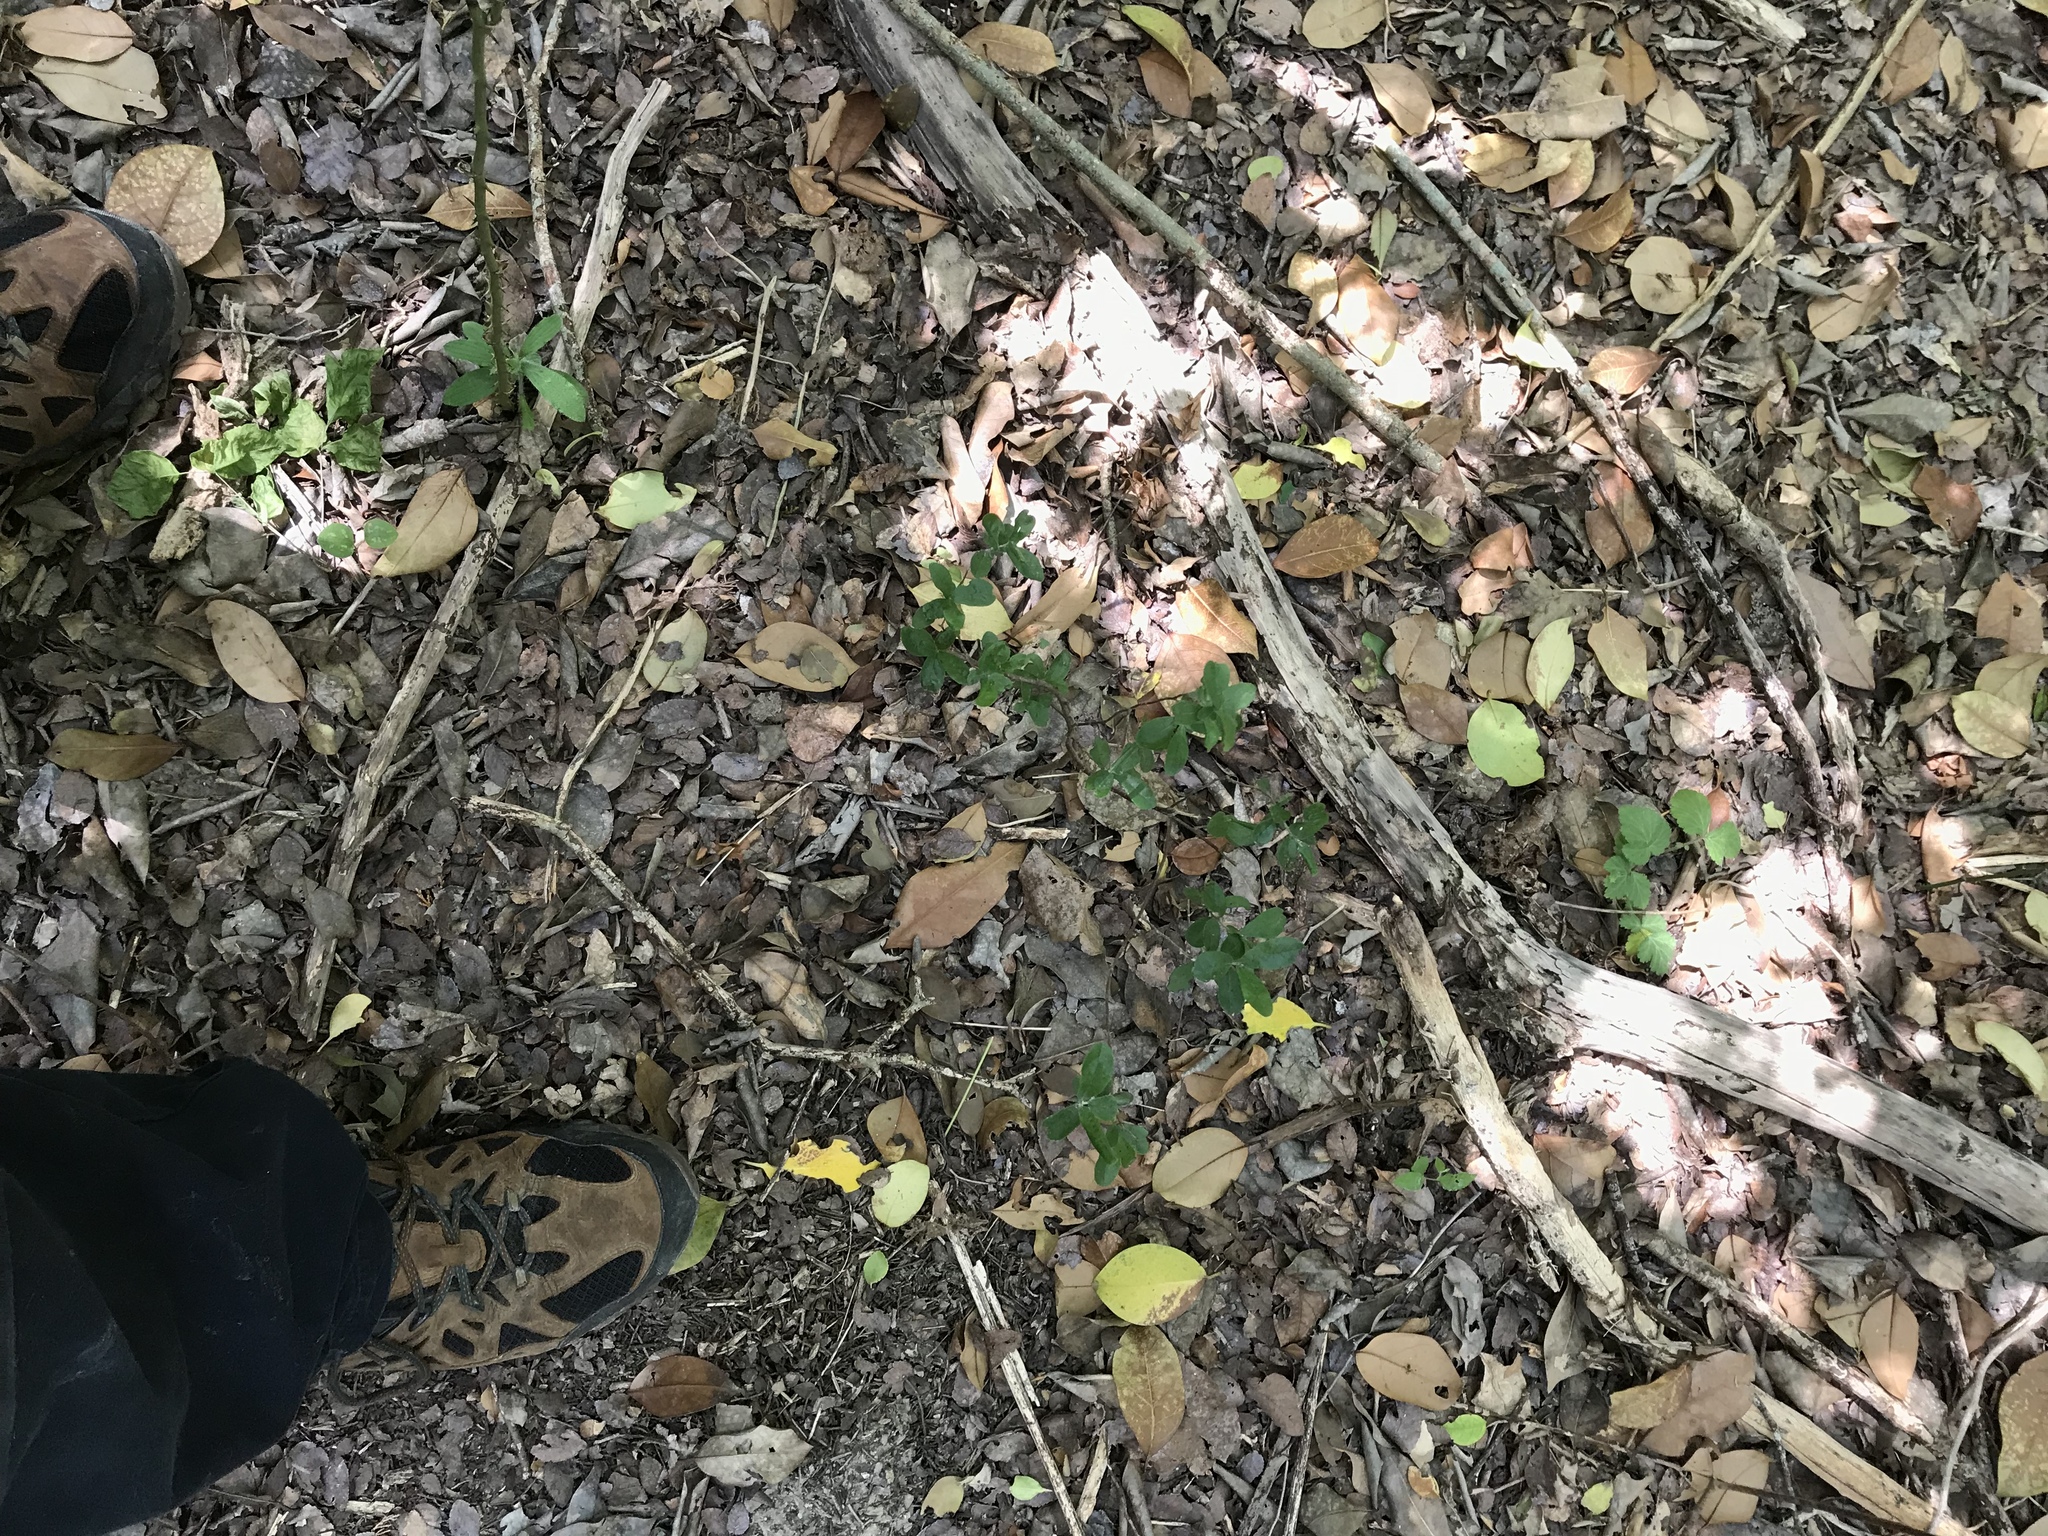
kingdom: Plantae
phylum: Tracheophyta
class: Magnoliopsida
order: Ericales
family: Ebenaceae
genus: Diospyros
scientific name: Diospyros texana
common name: Texas persimmon
